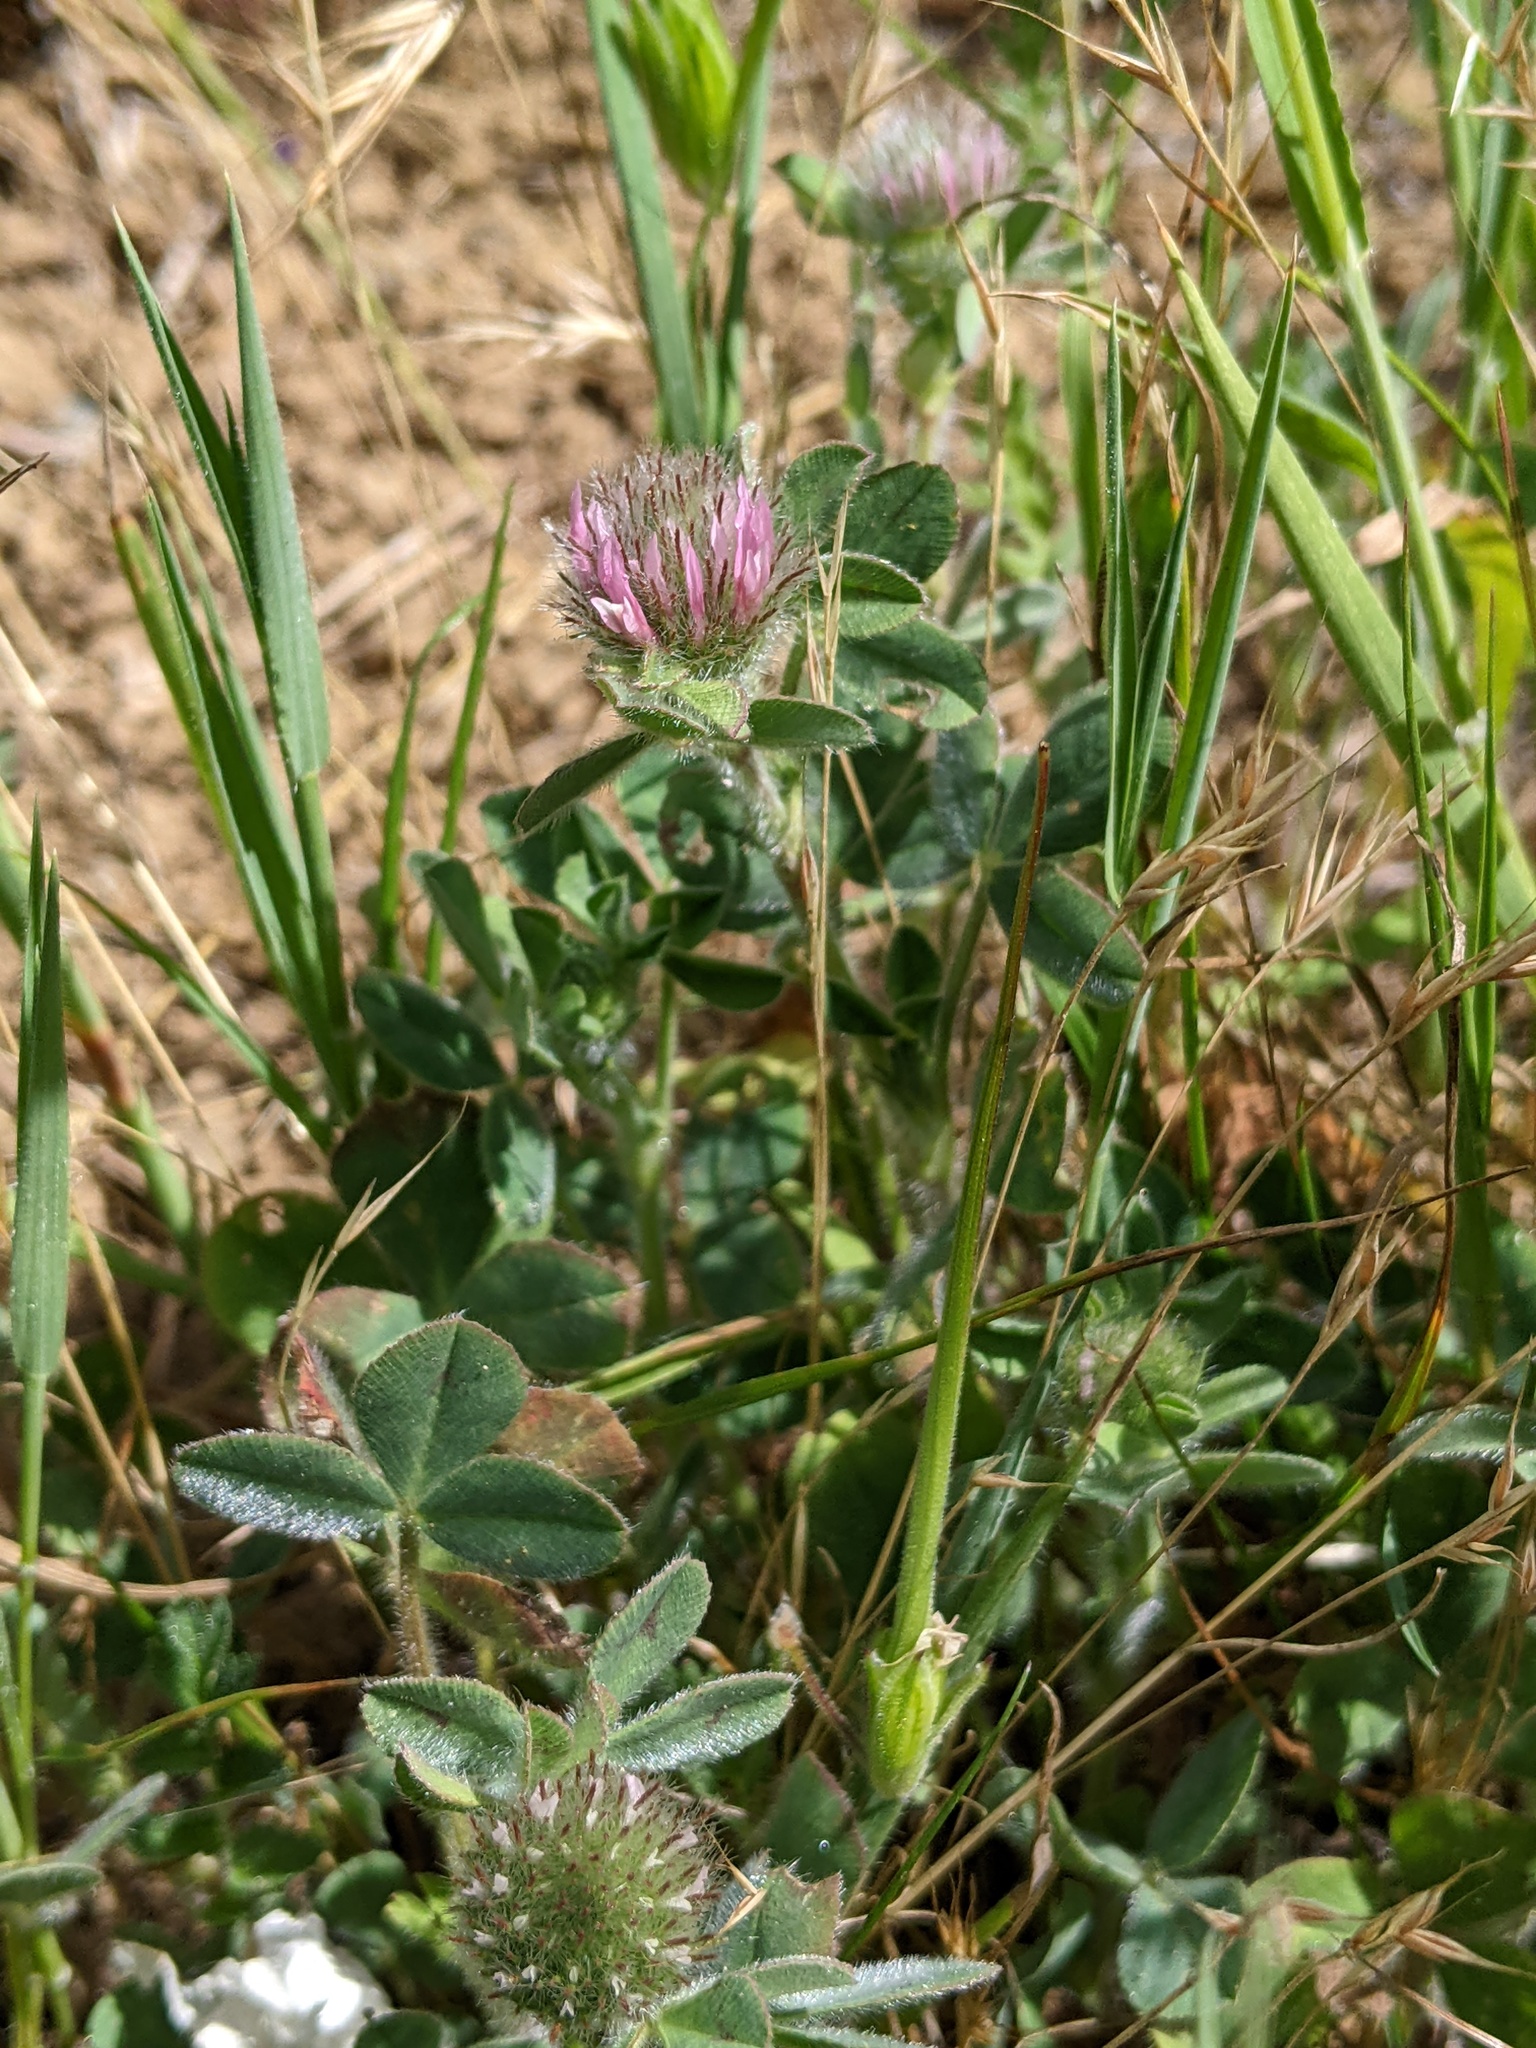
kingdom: Plantae
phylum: Tracheophyta
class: Magnoliopsida
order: Fabales
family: Fabaceae
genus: Trifolium
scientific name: Trifolium hirtum
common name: Rose clover
